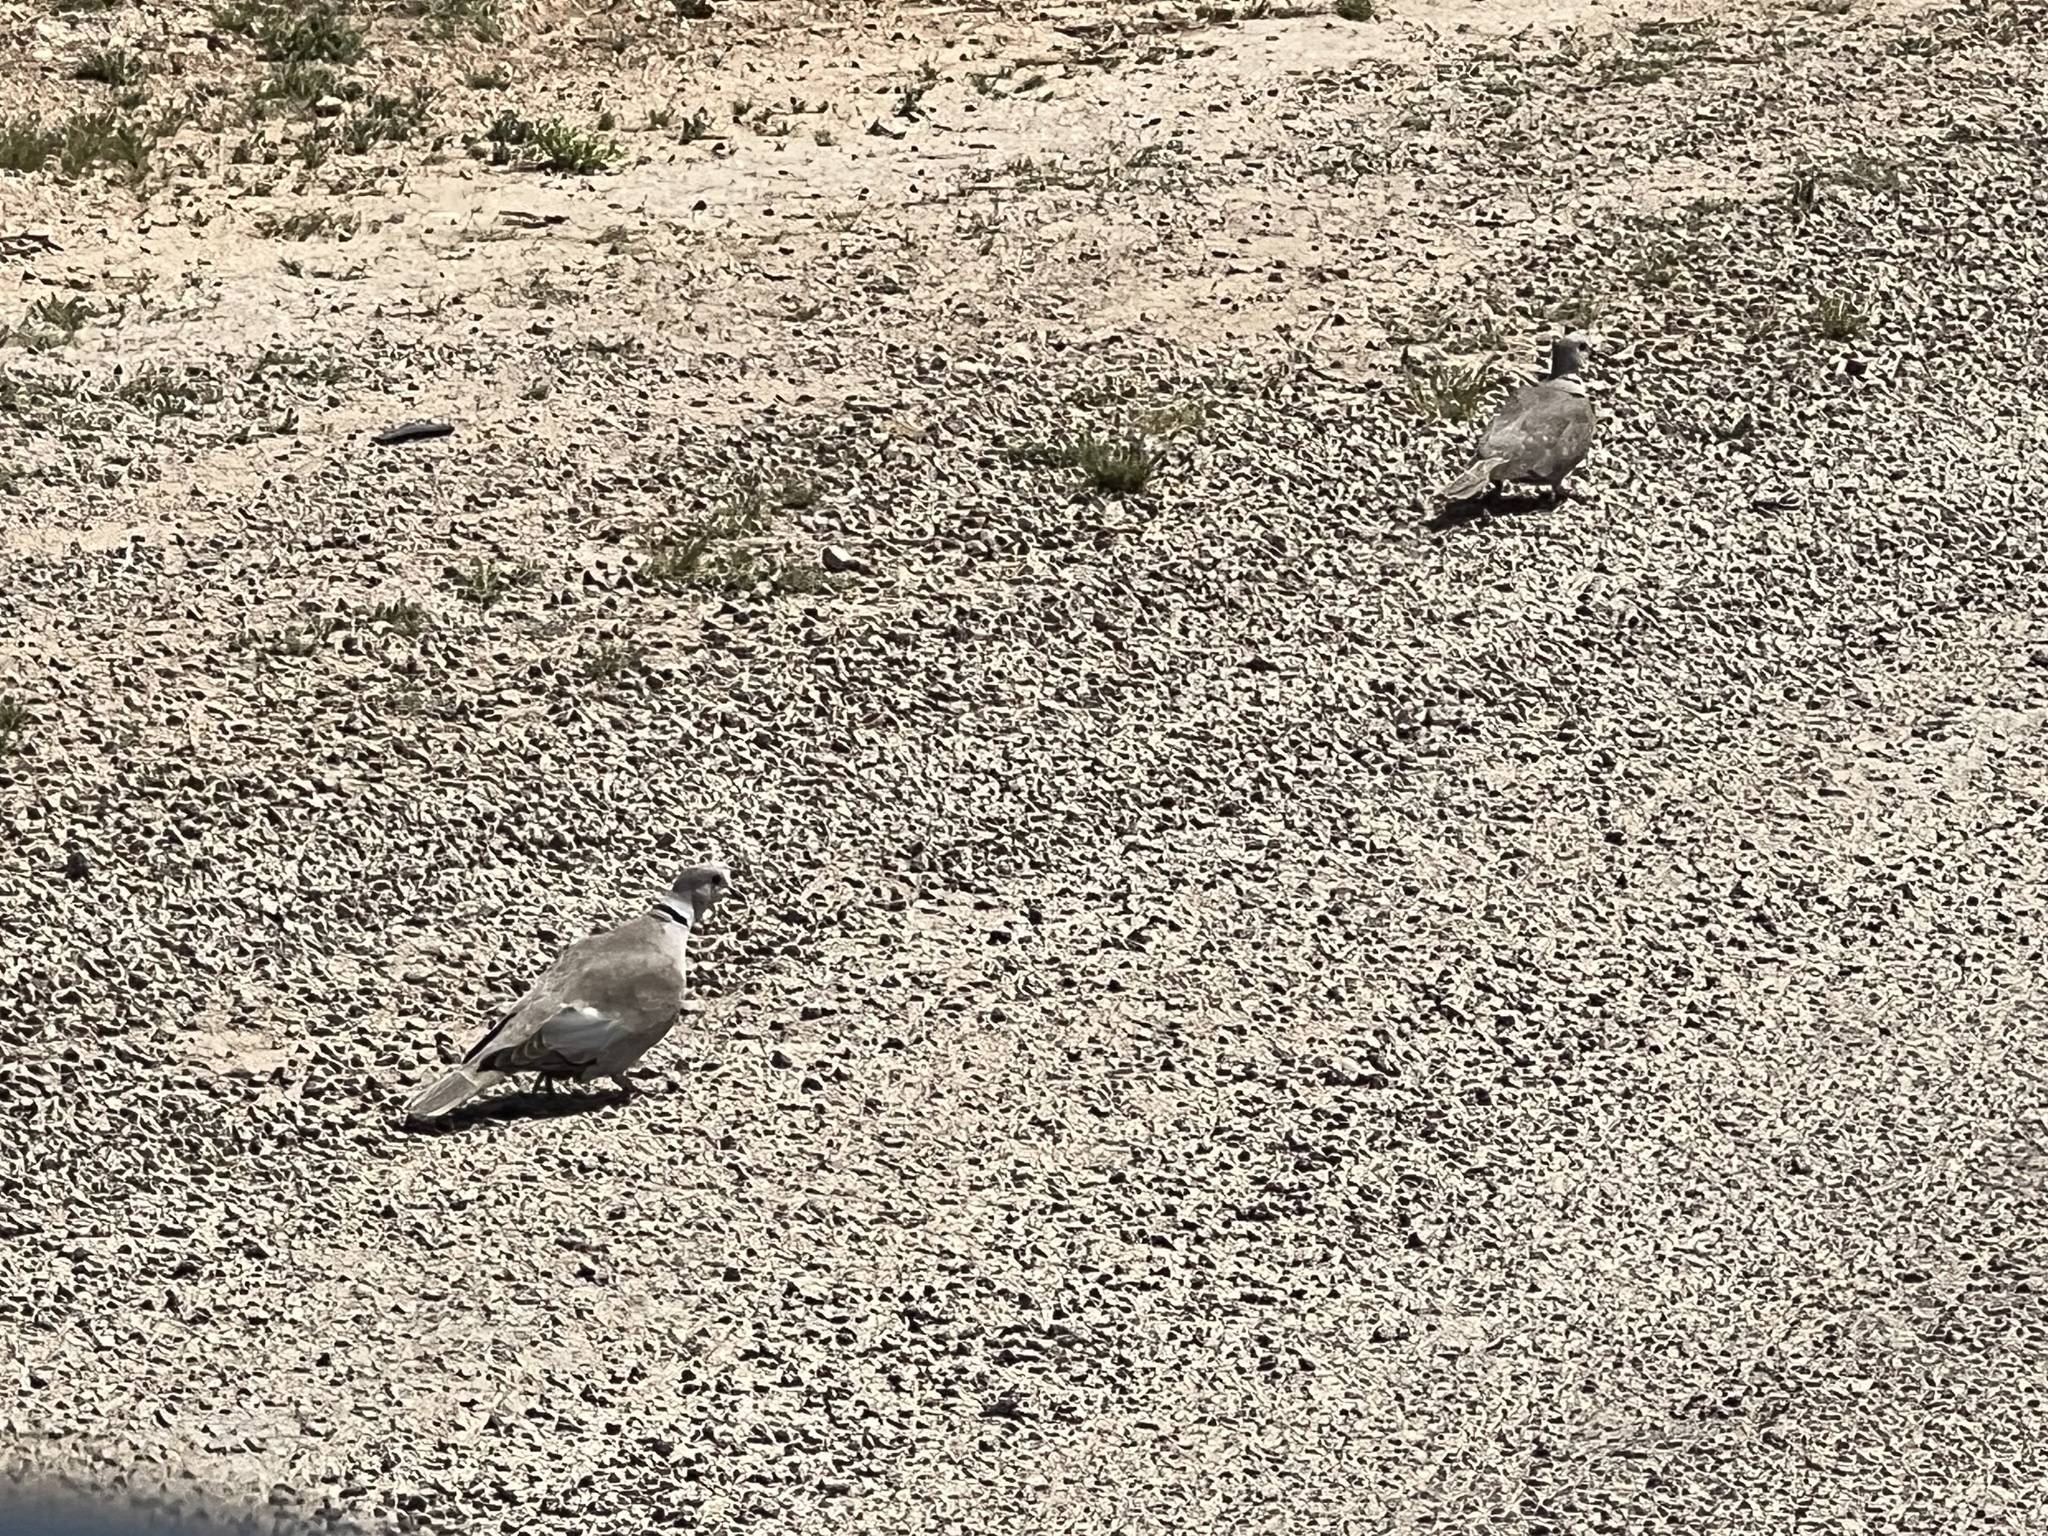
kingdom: Animalia
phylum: Chordata
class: Aves
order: Columbiformes
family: Columbidae
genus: Streptopelia
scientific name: Streptopelia decaocto
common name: Eurasian collared dove
